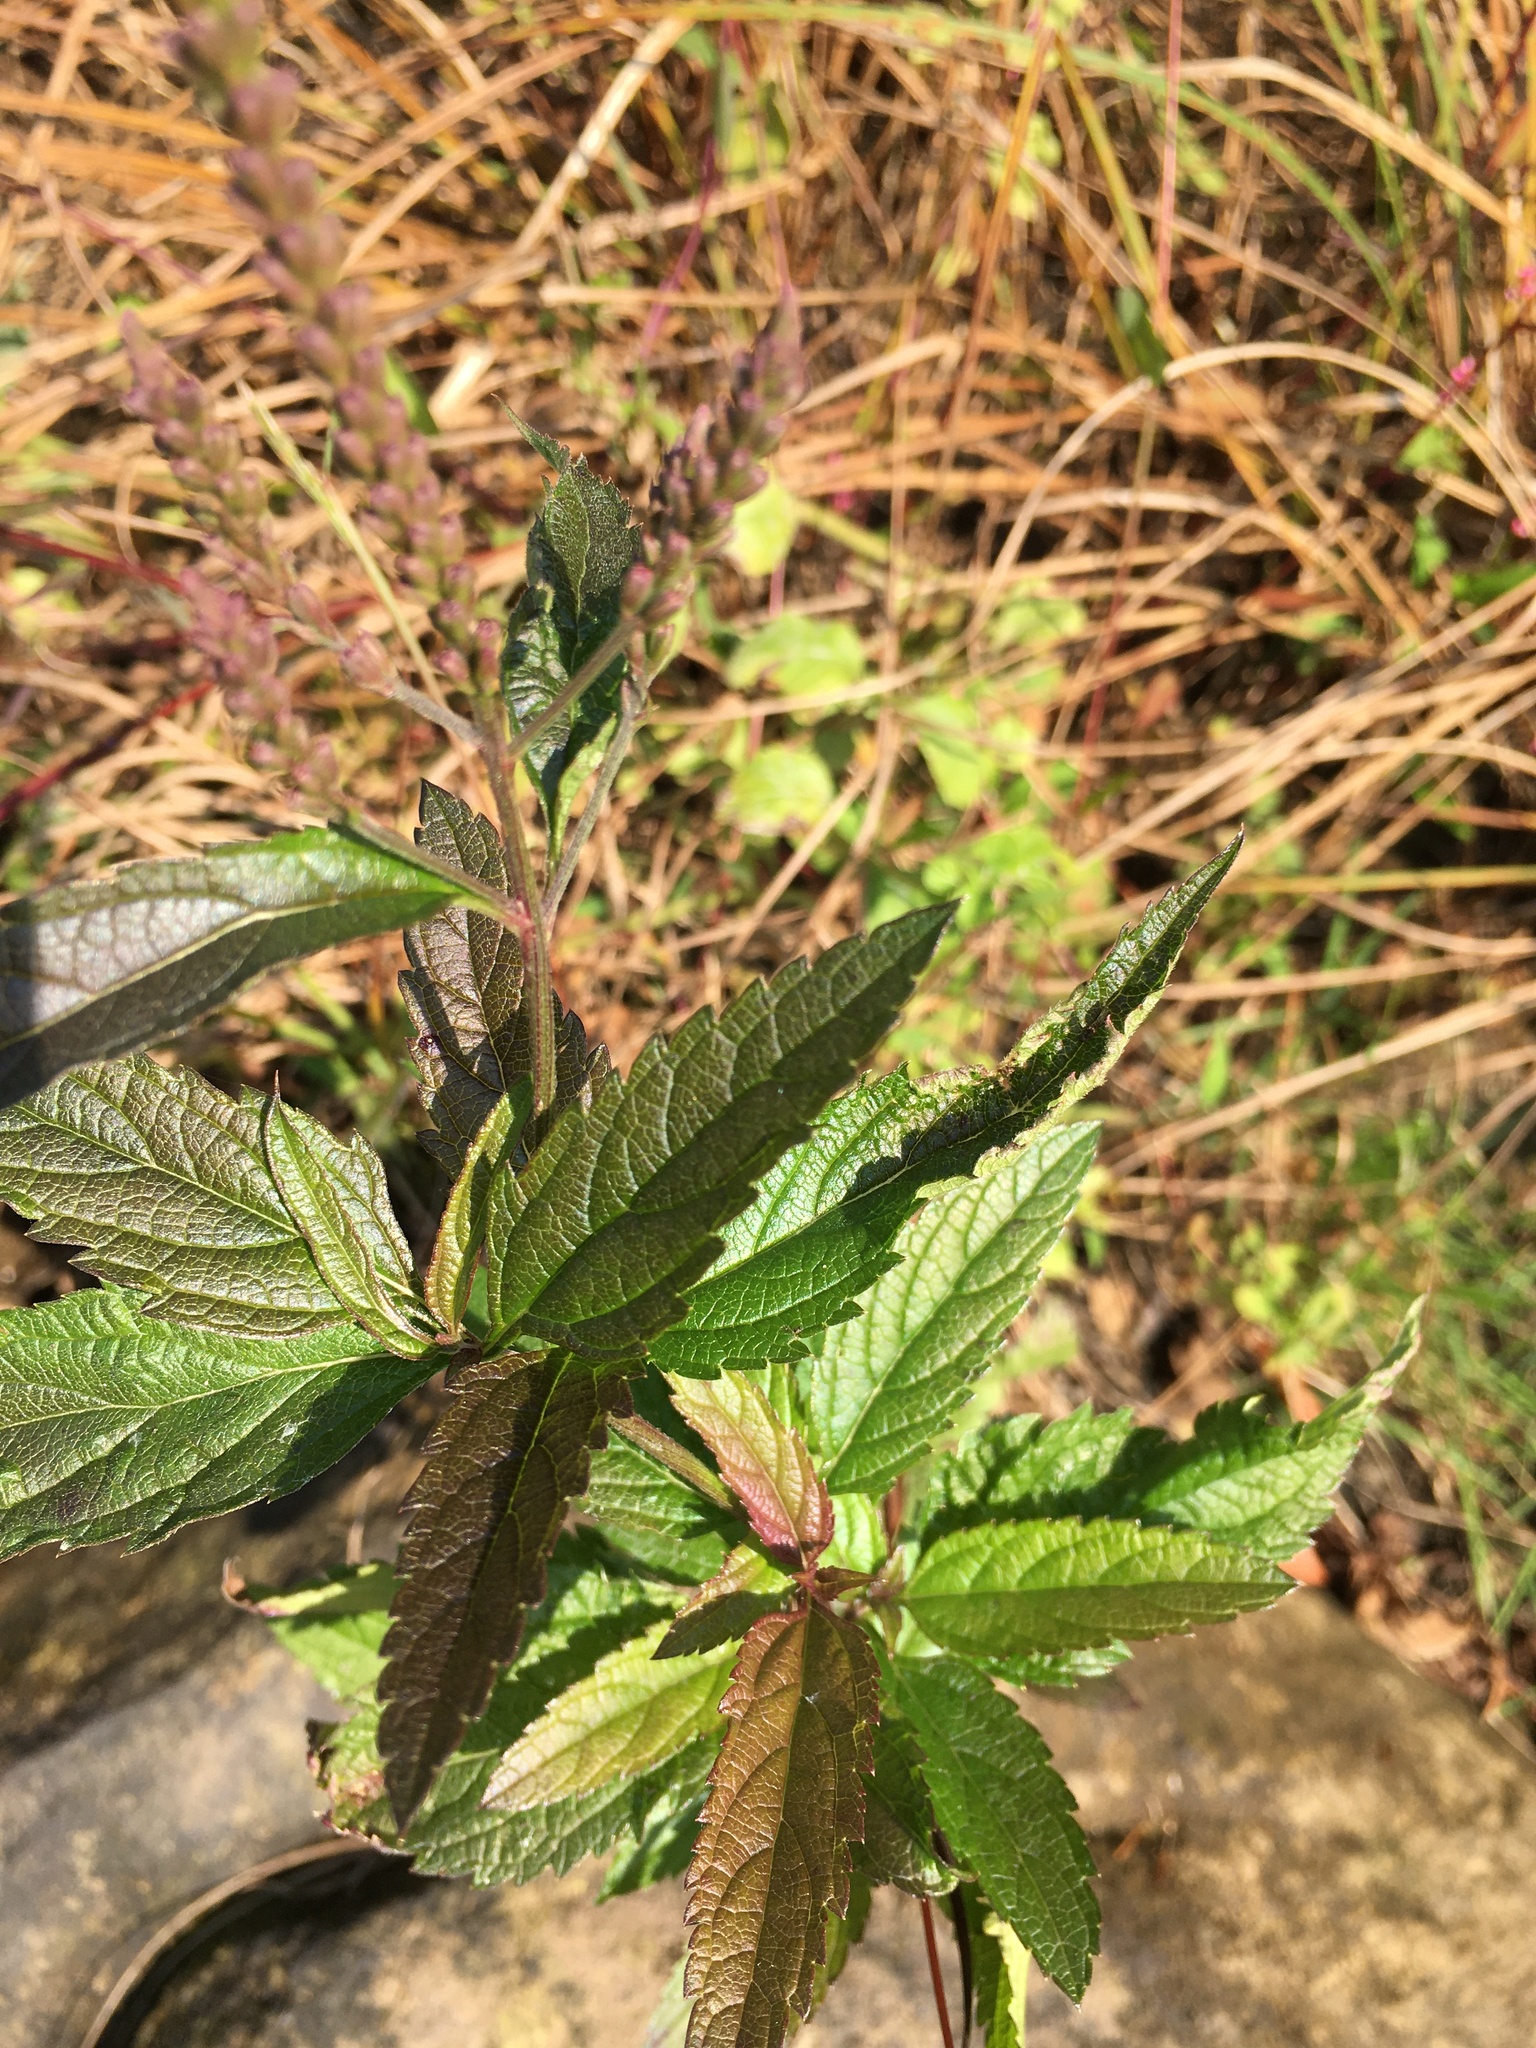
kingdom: Plantae
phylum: Tracheophyta
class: Magnoliopsida
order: Lamiales
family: Verbenaceae
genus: Verbena
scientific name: Verbena hastata
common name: American blue vervain
